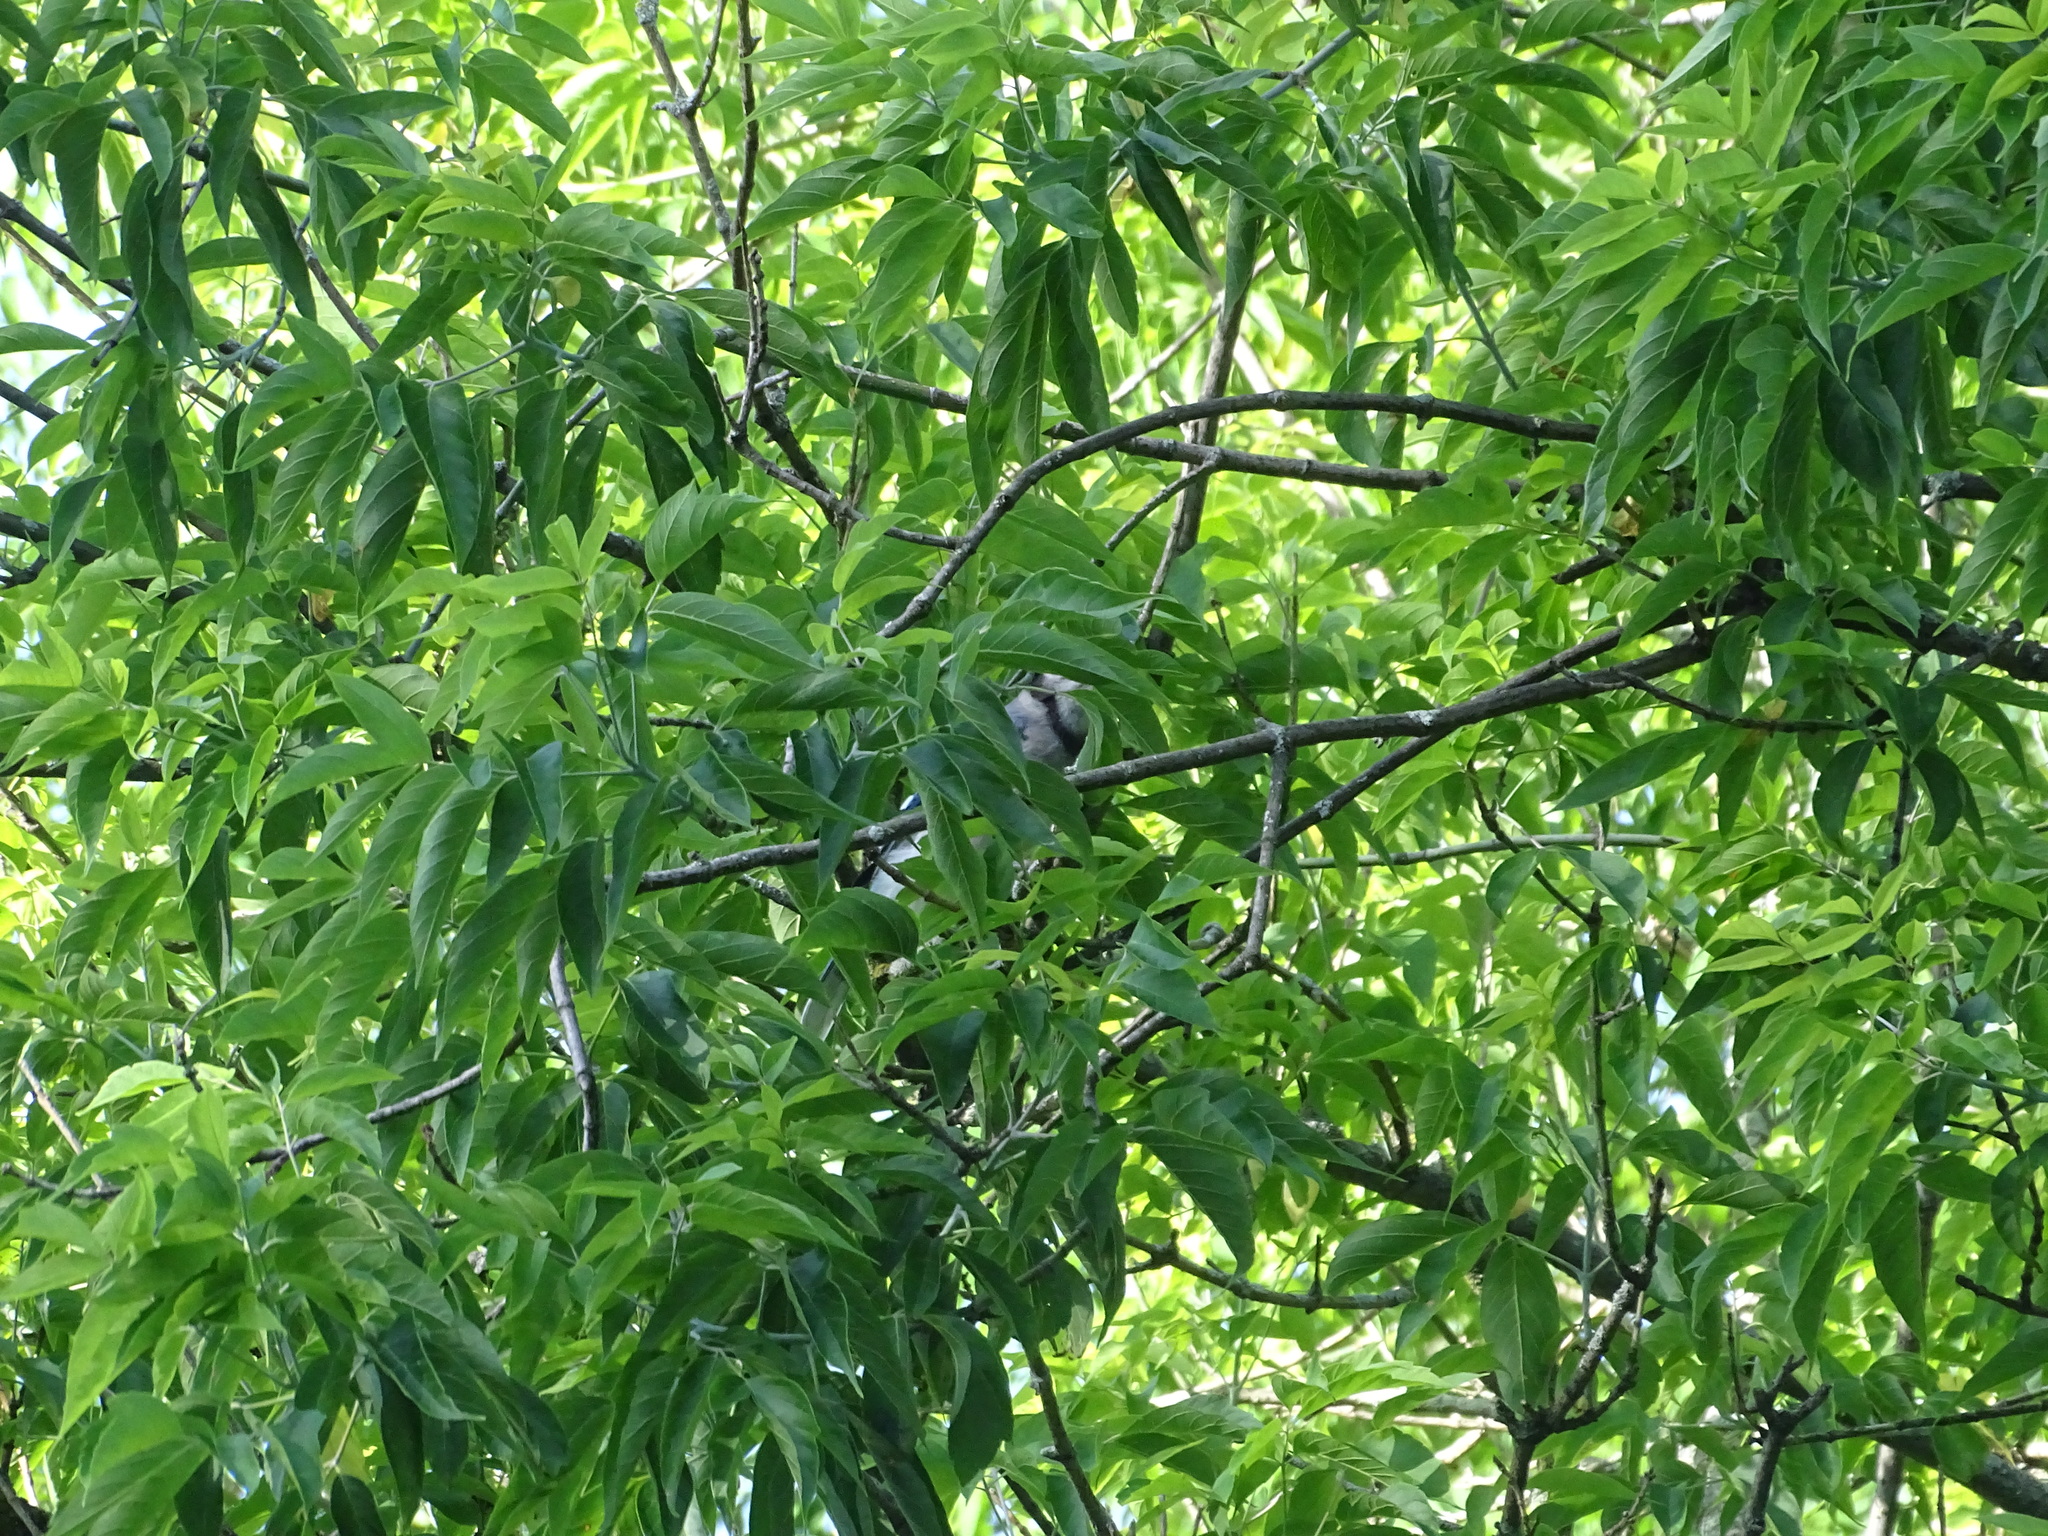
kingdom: Animalia
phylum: Chordata
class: Aves
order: Passeriformes
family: Corvidae
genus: Cyanocitta
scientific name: Cyanocitta cristata
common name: Blue jay
